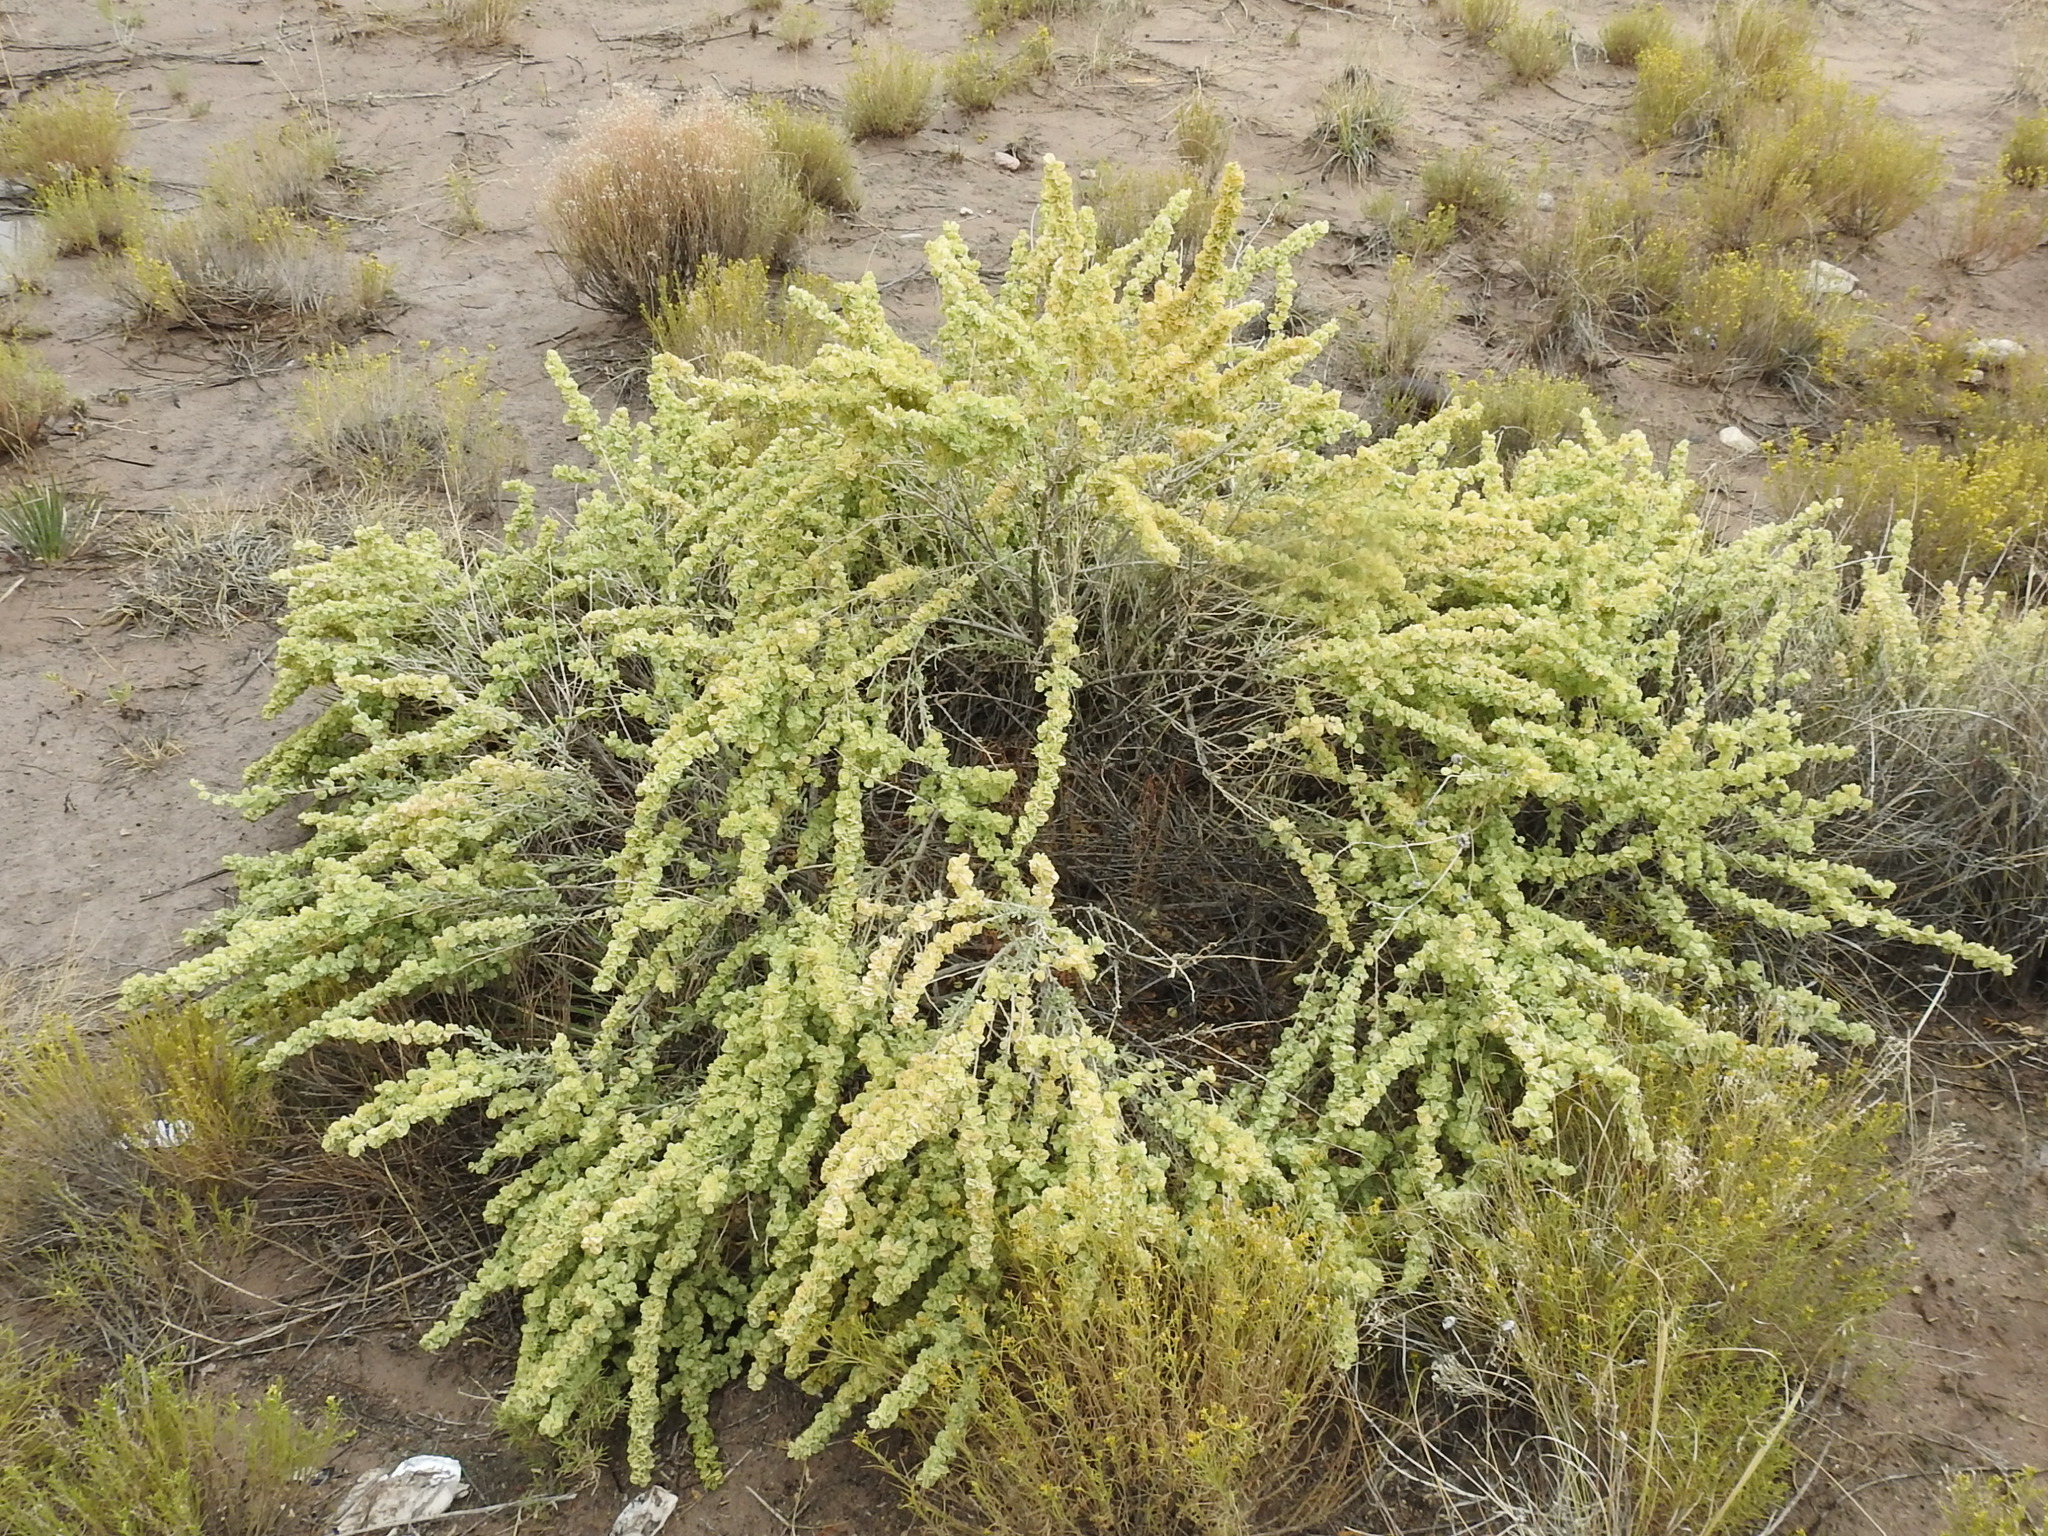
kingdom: Plantae
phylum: Tracheophyta
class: Magnoliopsida
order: Caryophyllales
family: Amaranthaceae
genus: Atriplex
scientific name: Atriplex canescens
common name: Four-wing saltbush
